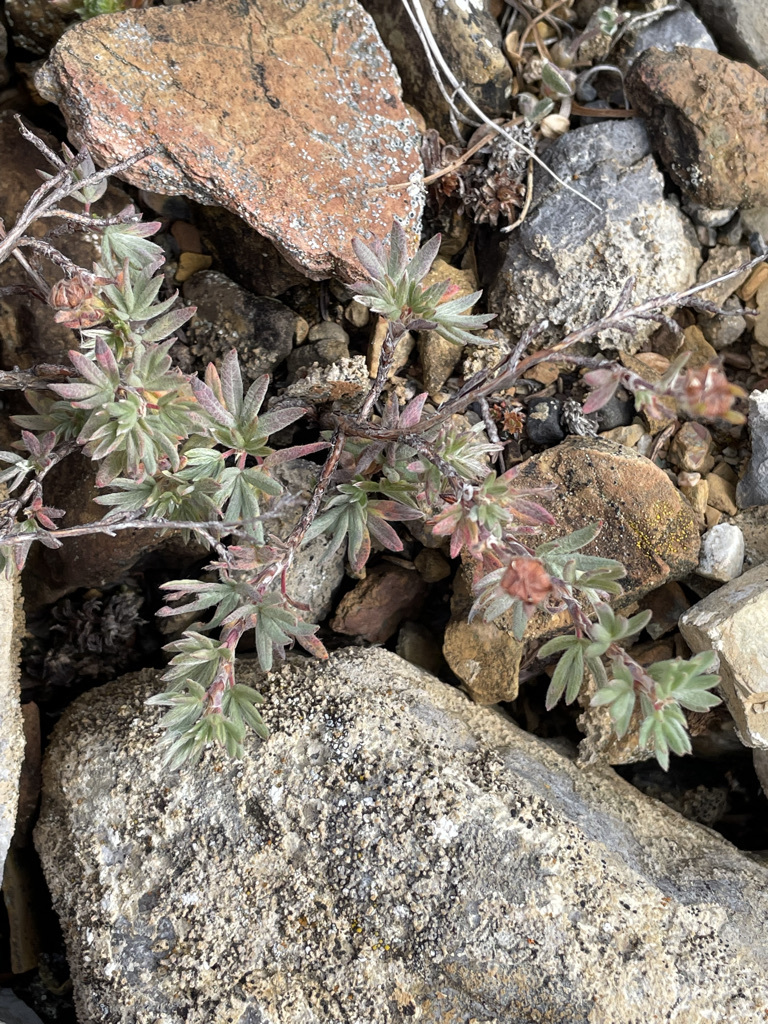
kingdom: Plantae
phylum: Tracheophyta
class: Magnoliopsida
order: Ericales
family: Primulaceae
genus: Androsace
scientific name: Androsace chamaejasme
